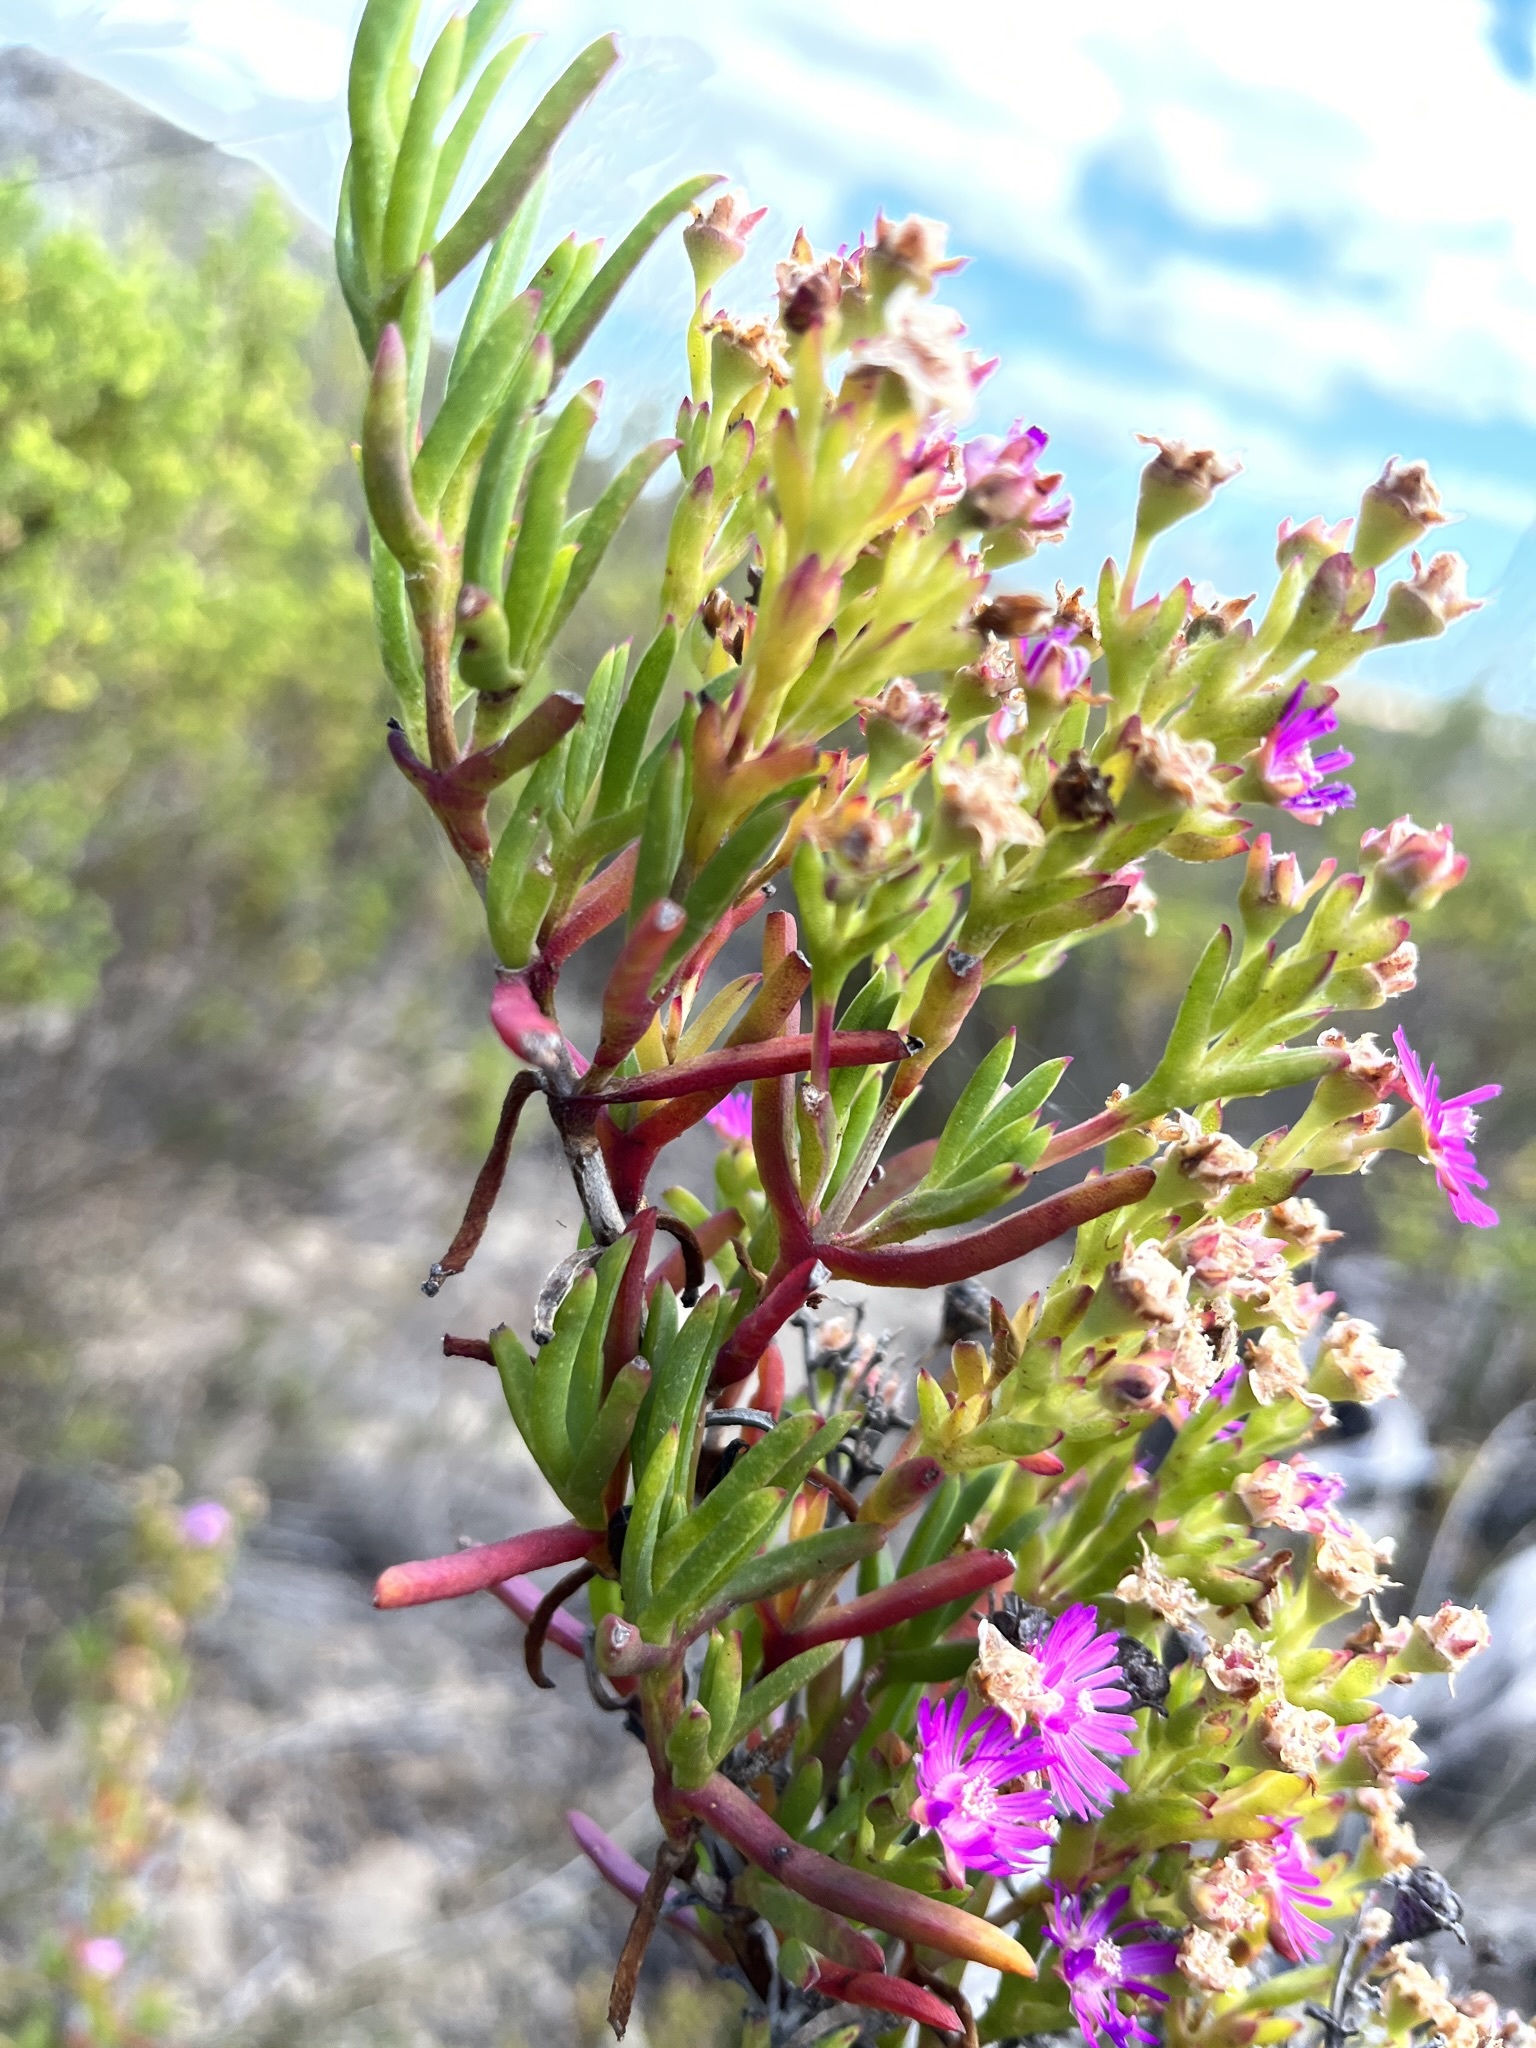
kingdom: Plantae
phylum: Tracheophyta
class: Magnoliopsida
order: Caryophyllales
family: Aizoaceae
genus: Ruschia
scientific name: Ruschia macowanii
